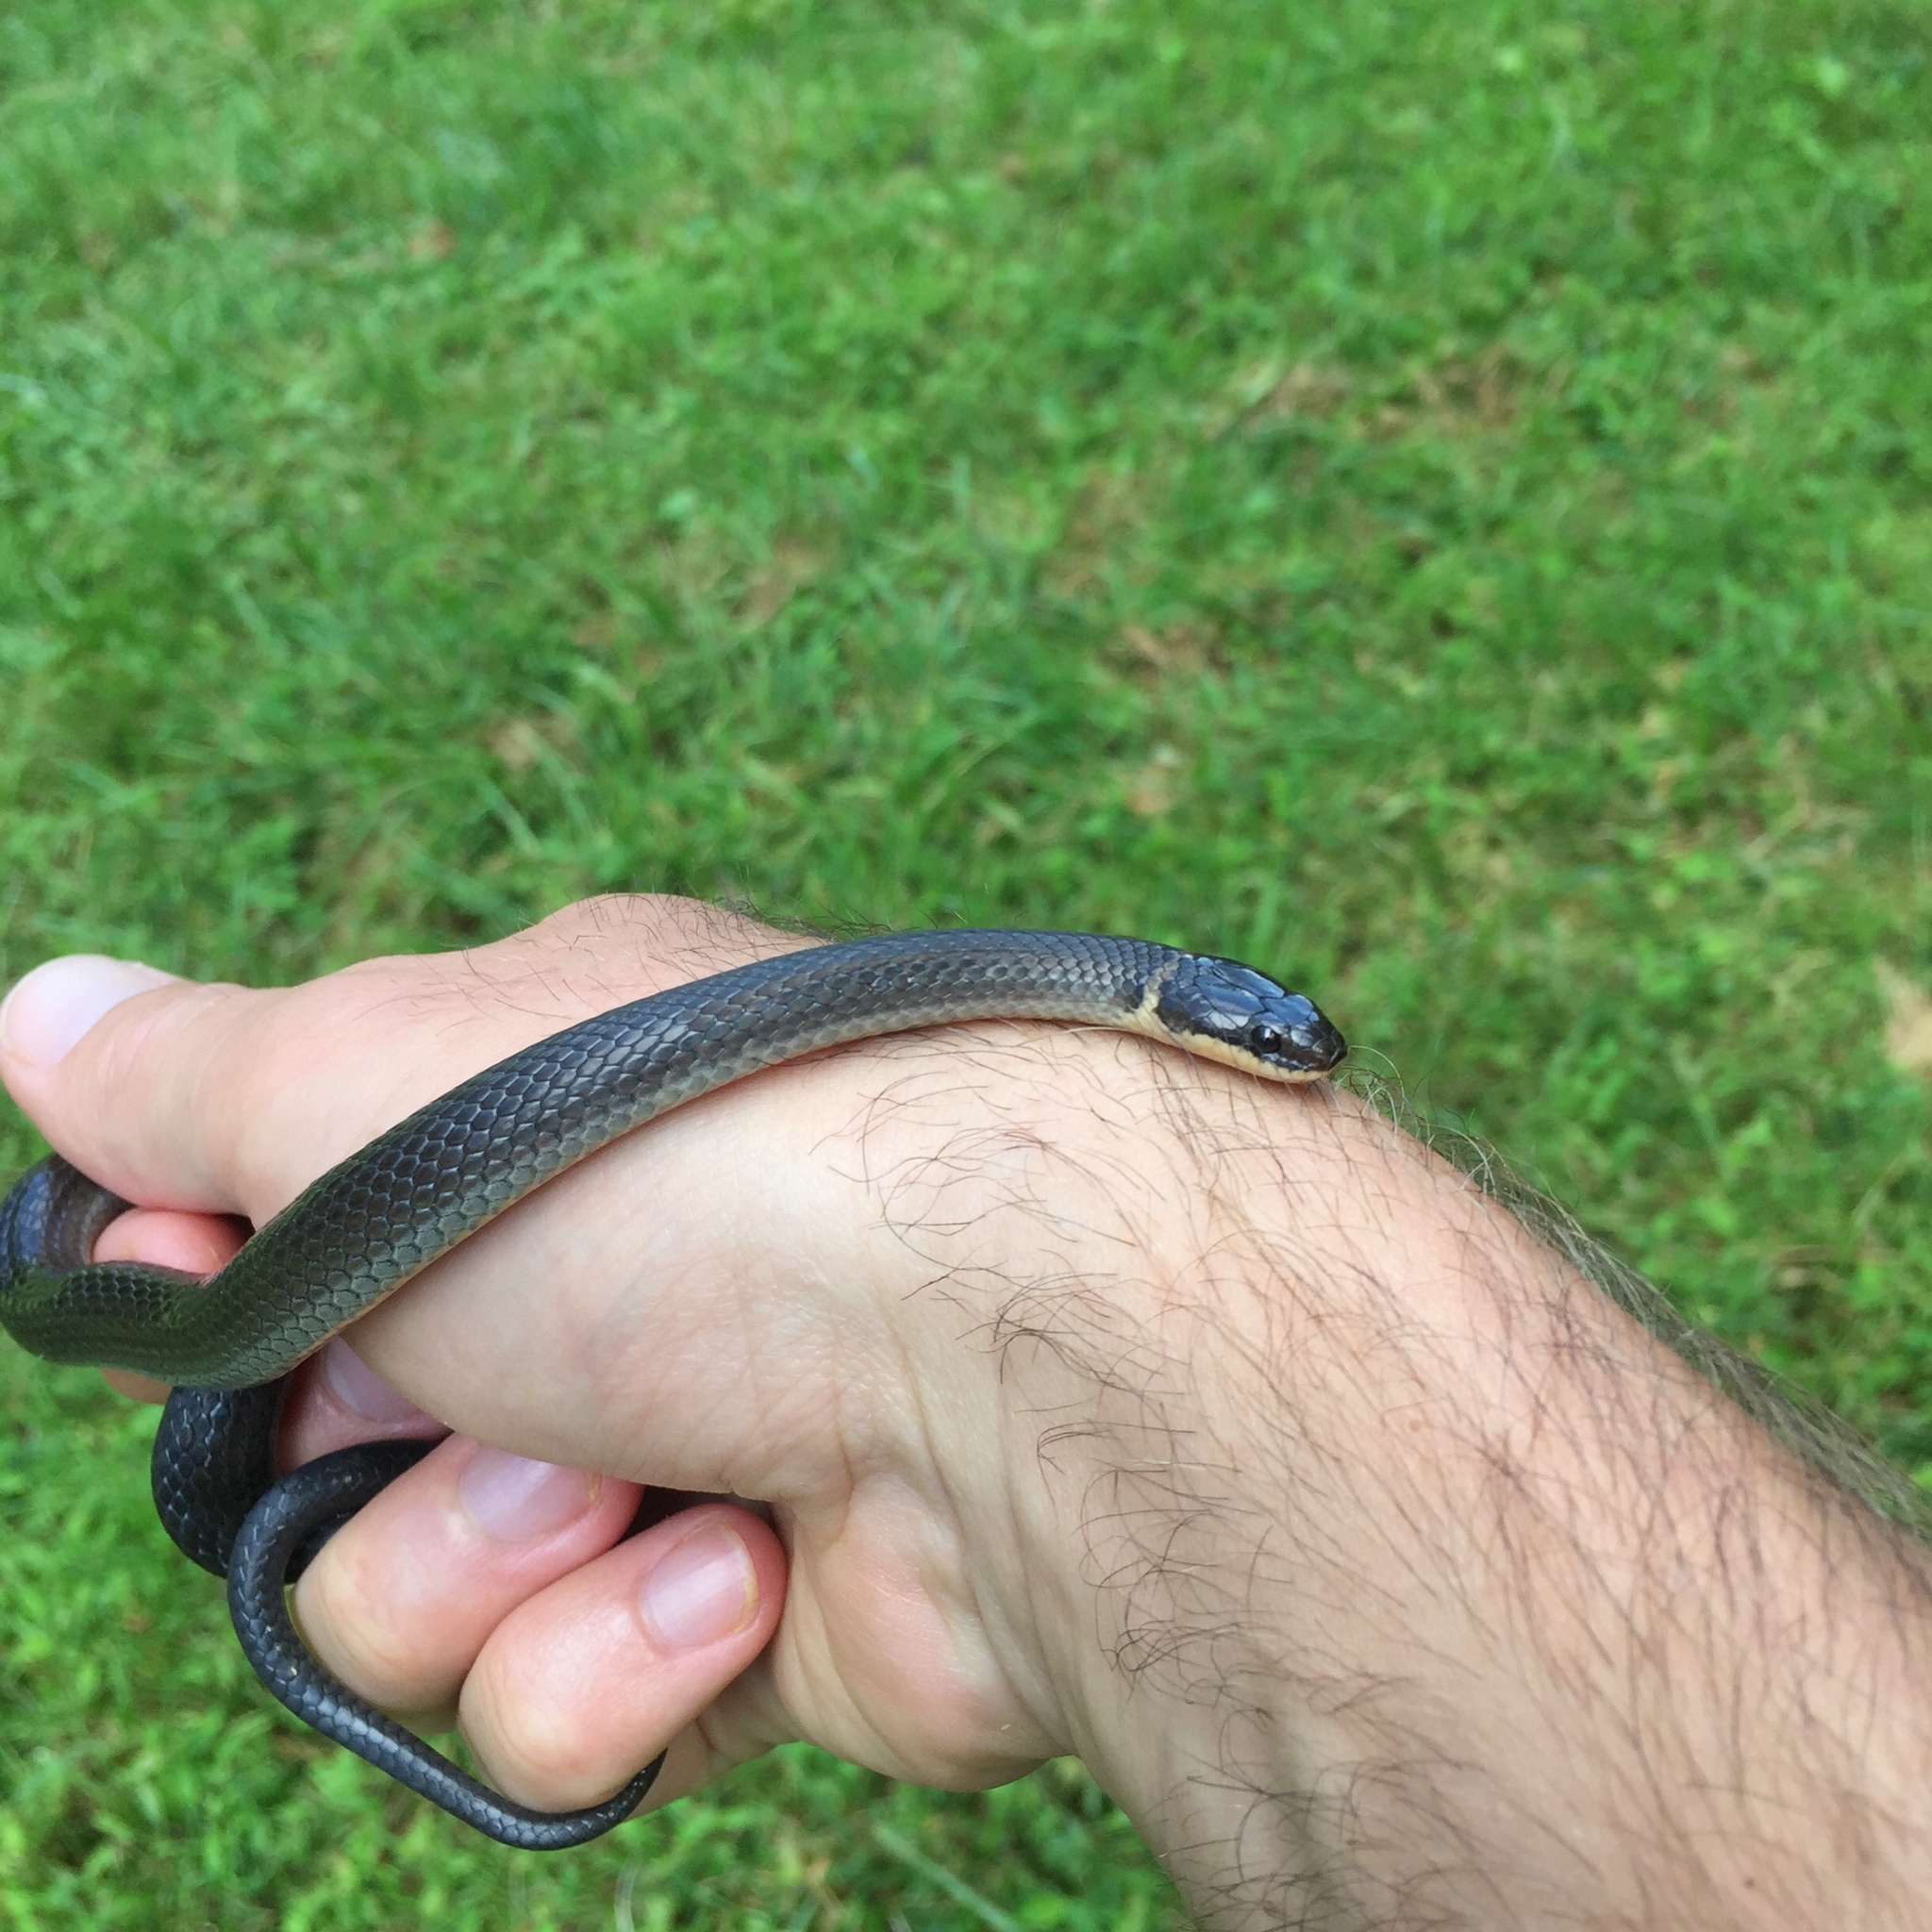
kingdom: Animalia
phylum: Chordata
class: Squamata
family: Colubridae
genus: Diadophis
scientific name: Diadophis punctatus
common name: Ringneck snake
